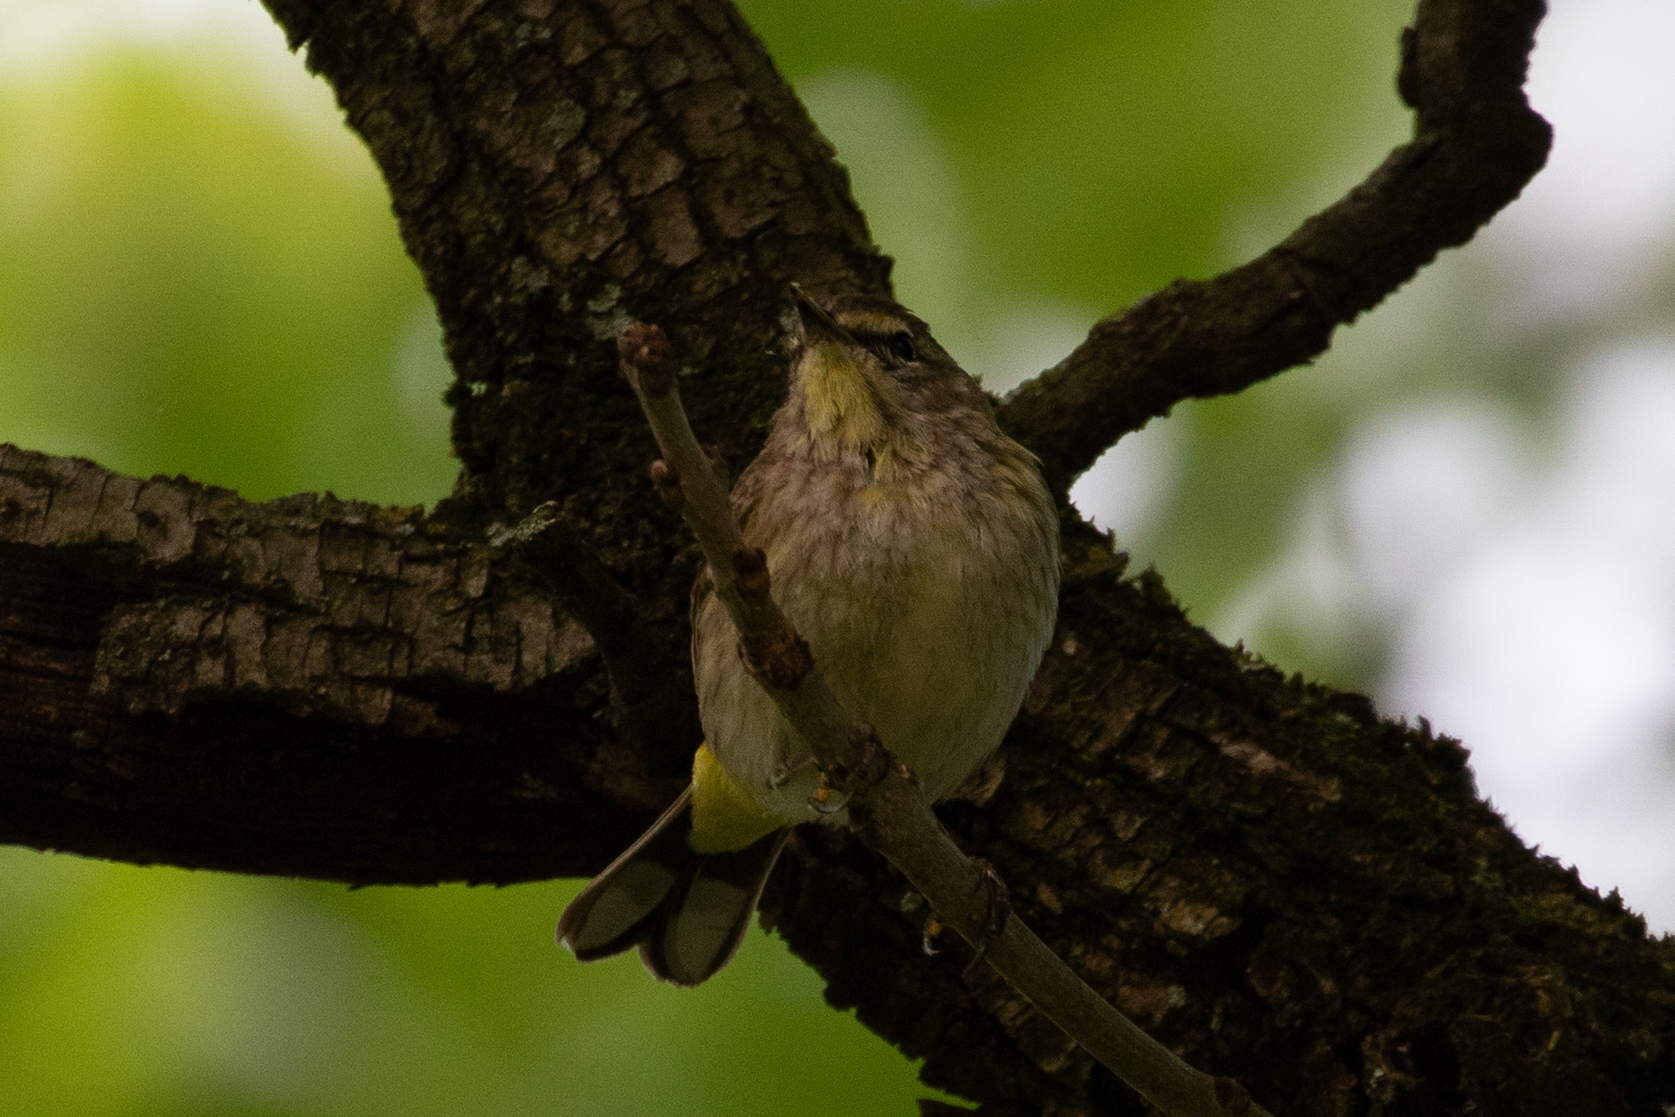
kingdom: Animalia
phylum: Chordata
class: Aves
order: Passeriformes
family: Parulidae
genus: Setophaga
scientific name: Setophaga palmarum
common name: Palm warbler
